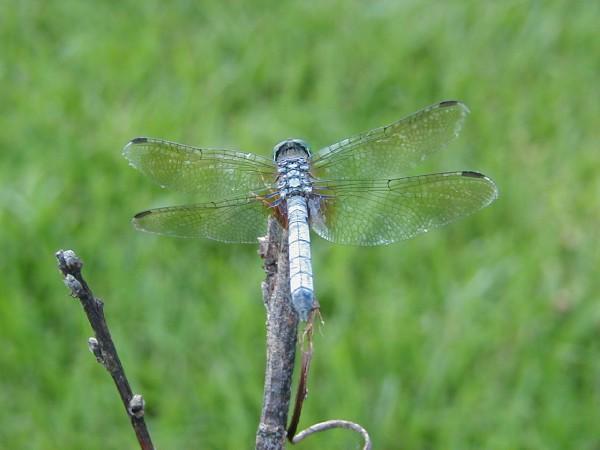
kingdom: Animalia
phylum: Arthropoda
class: Insecta
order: Odonata
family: Libellulidae
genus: Pachydiplax
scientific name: Pachydiplax longipennis
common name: Blue dasher
